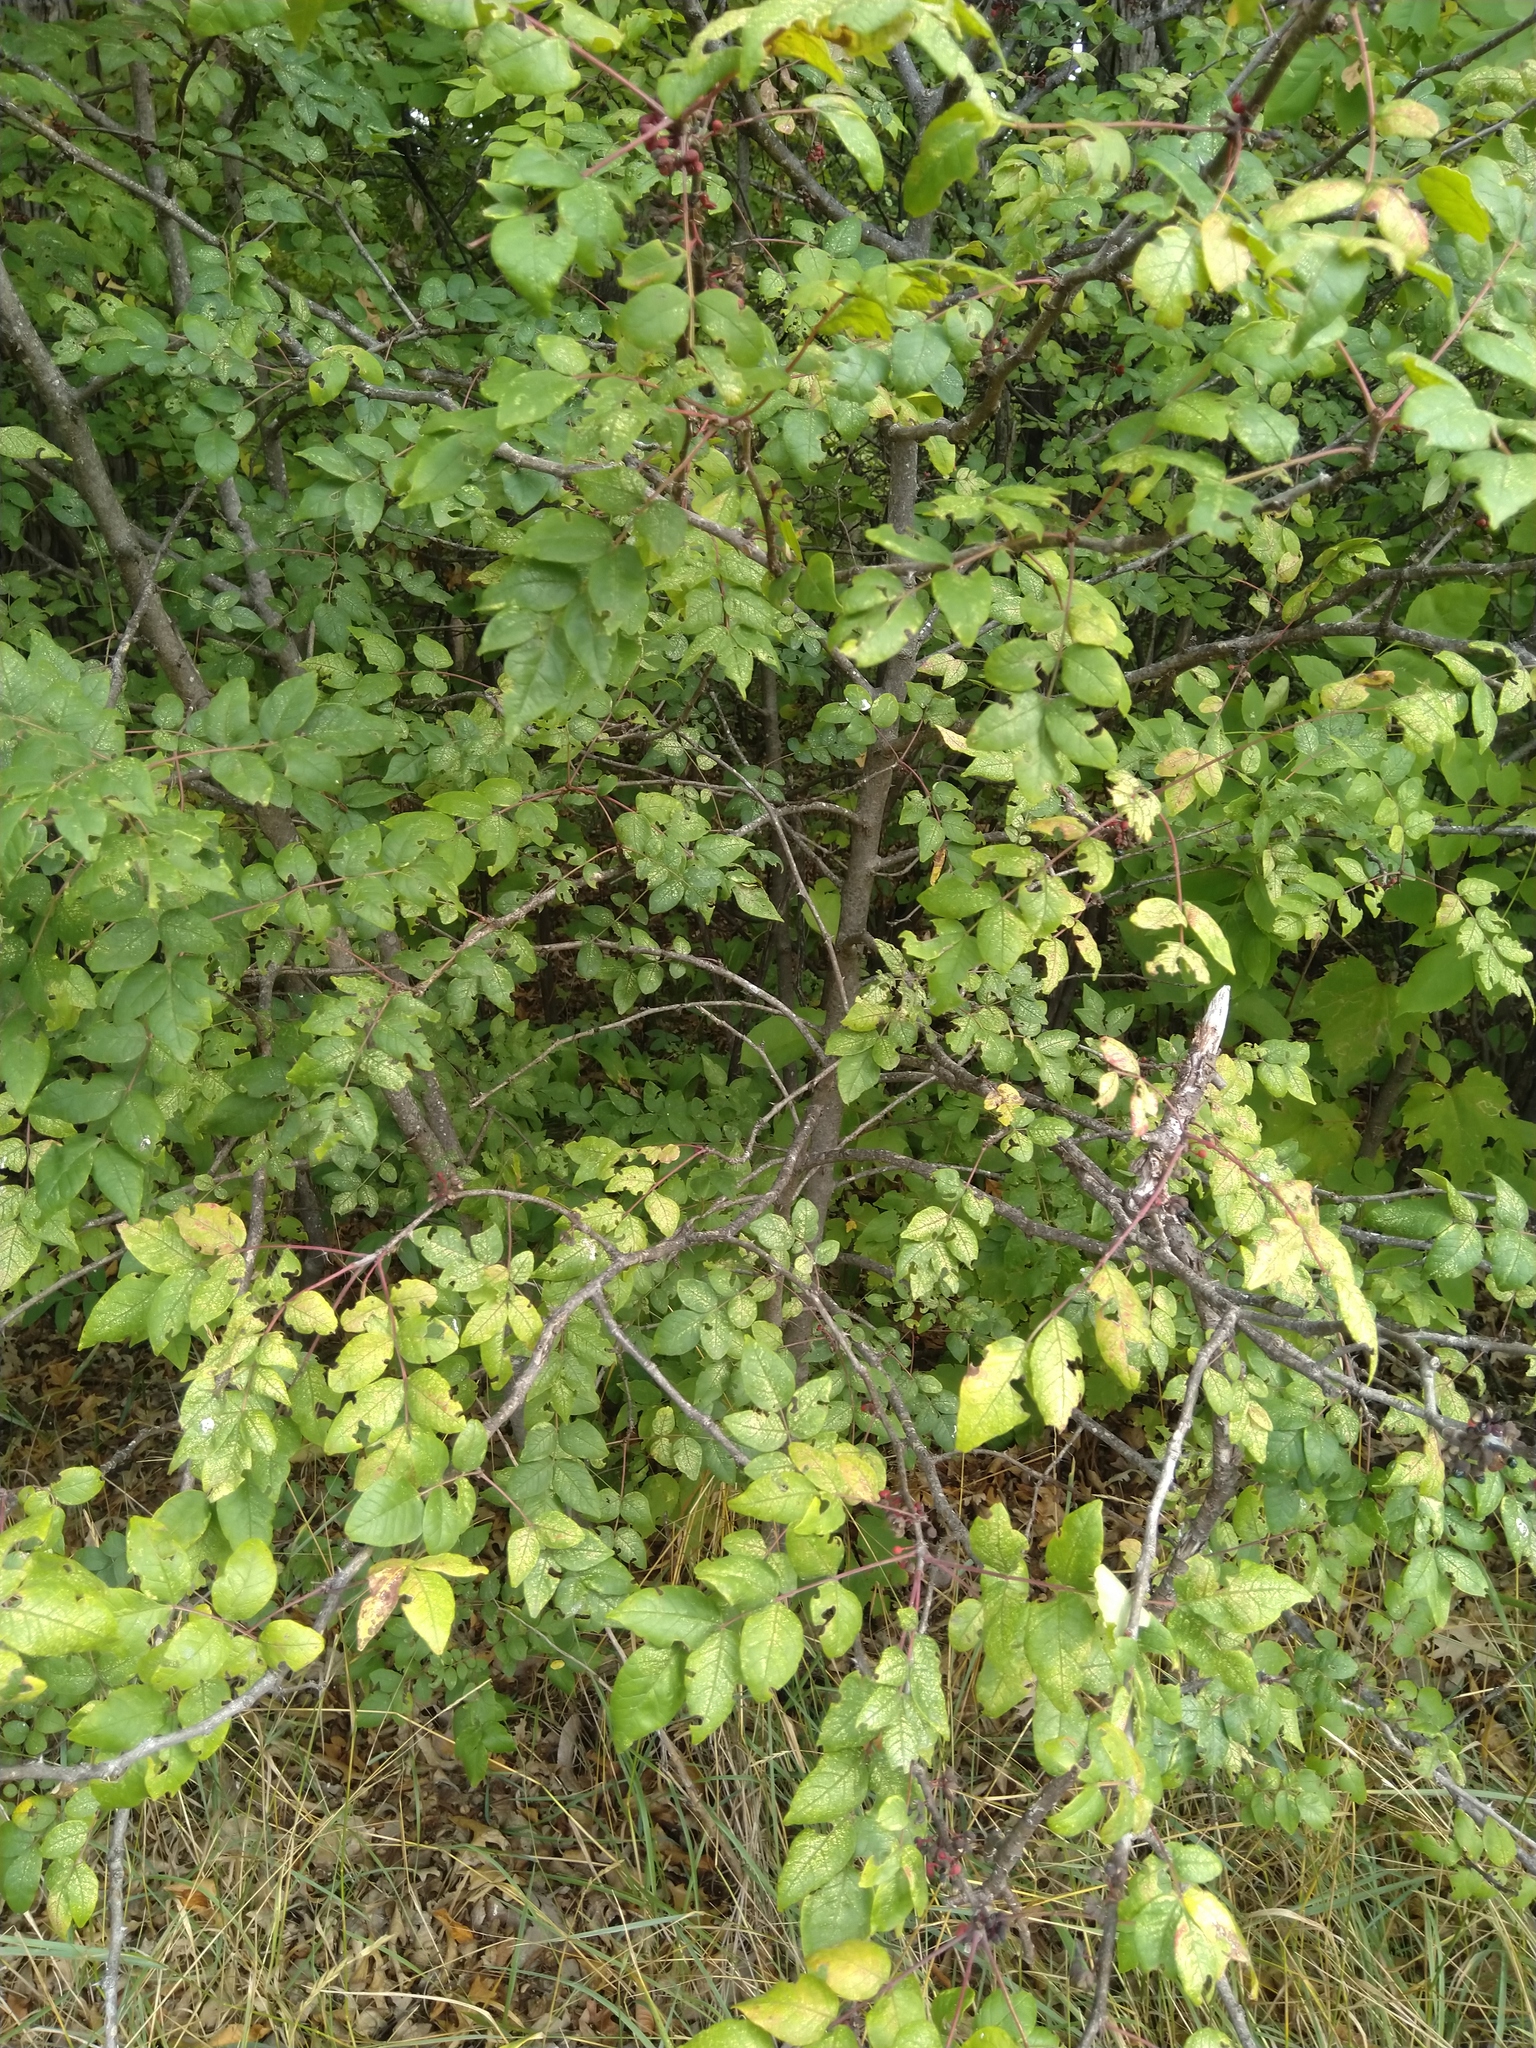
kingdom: Plantae
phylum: Tracheophyta
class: Magnoliopsida
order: Sapindales
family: Rutaceae
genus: Zanthoxylum
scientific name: Zanthoxylum americanum
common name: Northern prickly-ash
